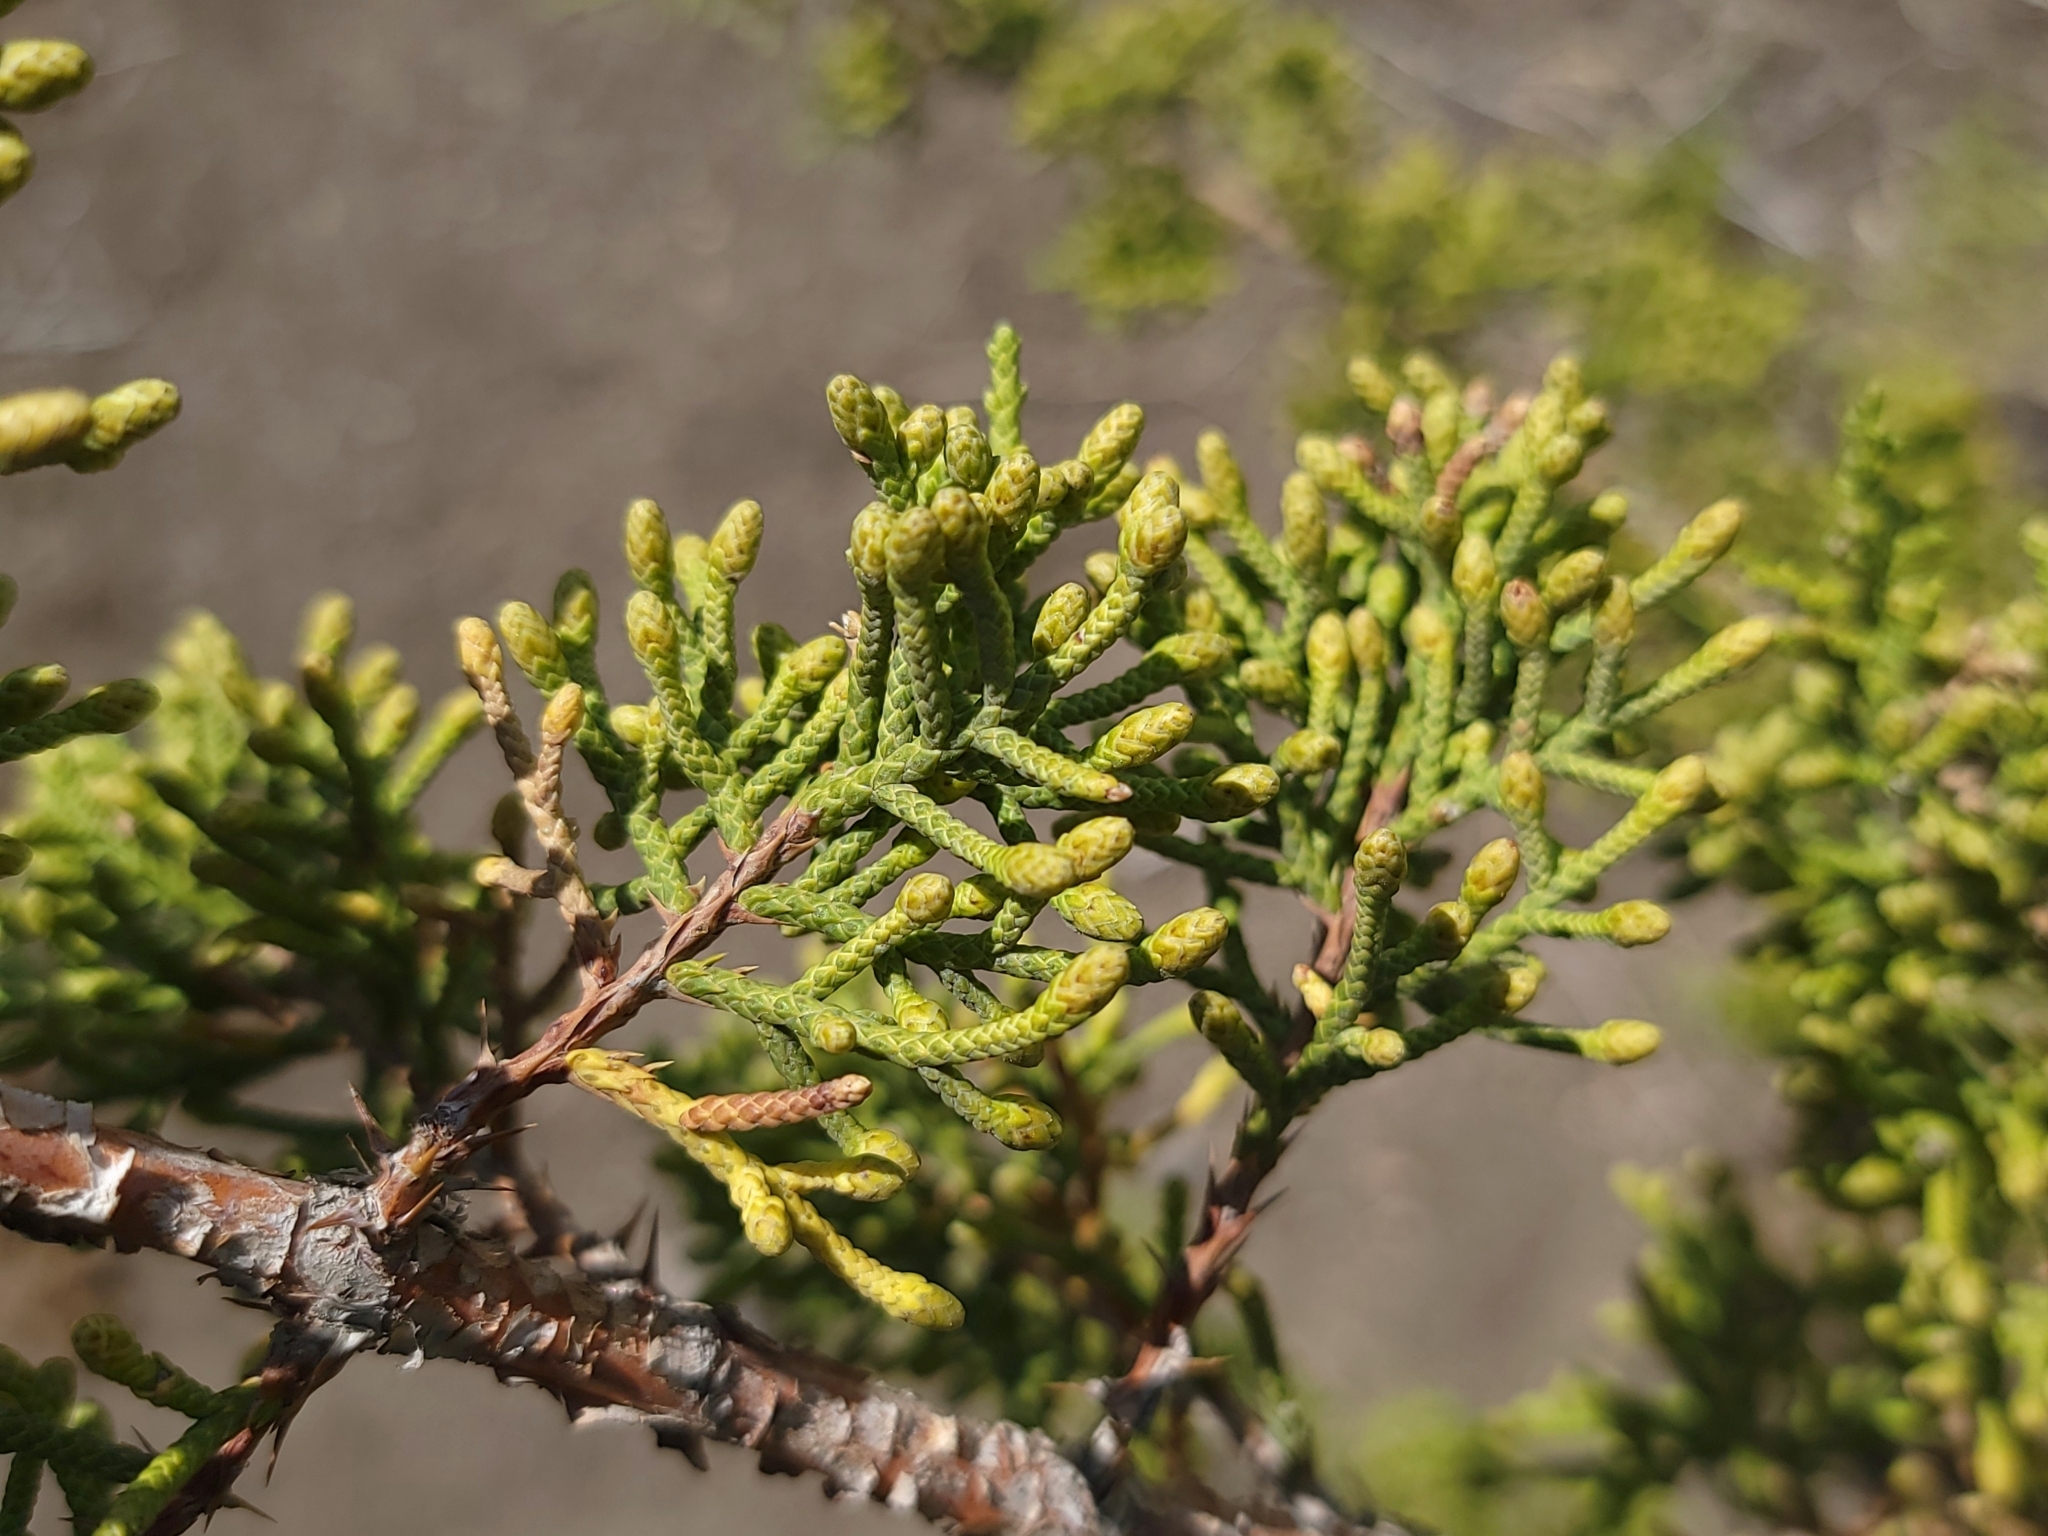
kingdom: Plantae
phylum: Tracheophyta
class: Pinopsida
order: Pinales
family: Cupressaceae
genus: Juniperus
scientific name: Juniperus californica
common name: California juniper
